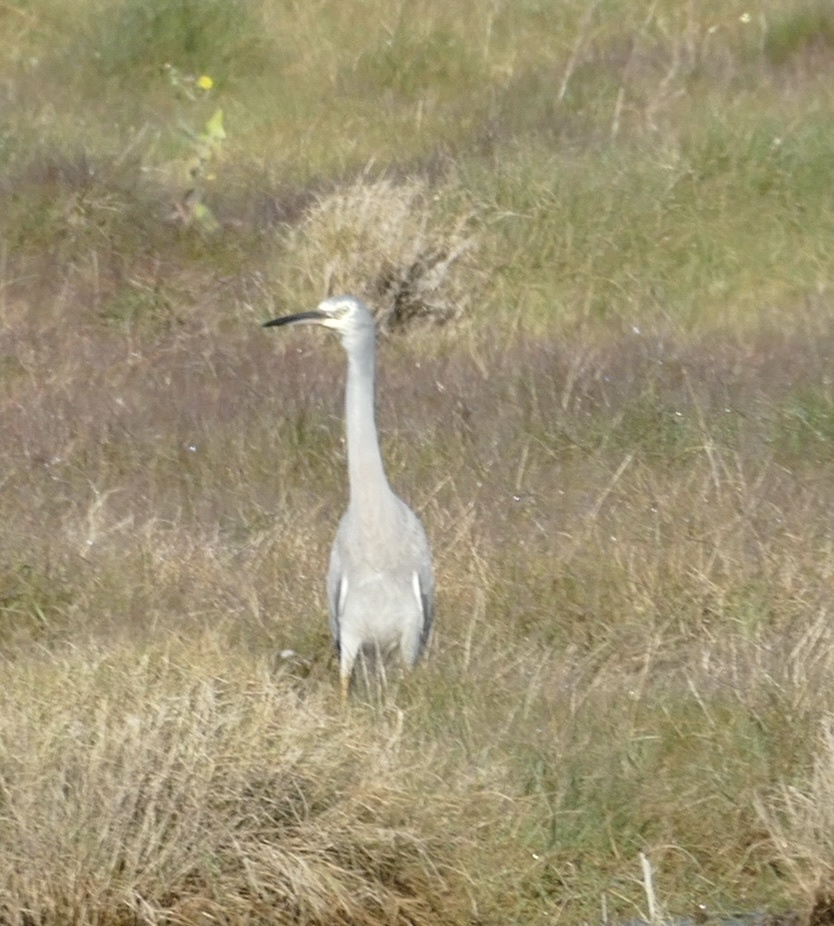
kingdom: Animalia
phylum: Chordata
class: Aves
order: Pelecaniformes
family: Ardeidae
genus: Egretta
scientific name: Egretta novaehollandiae
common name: White-faced heron
